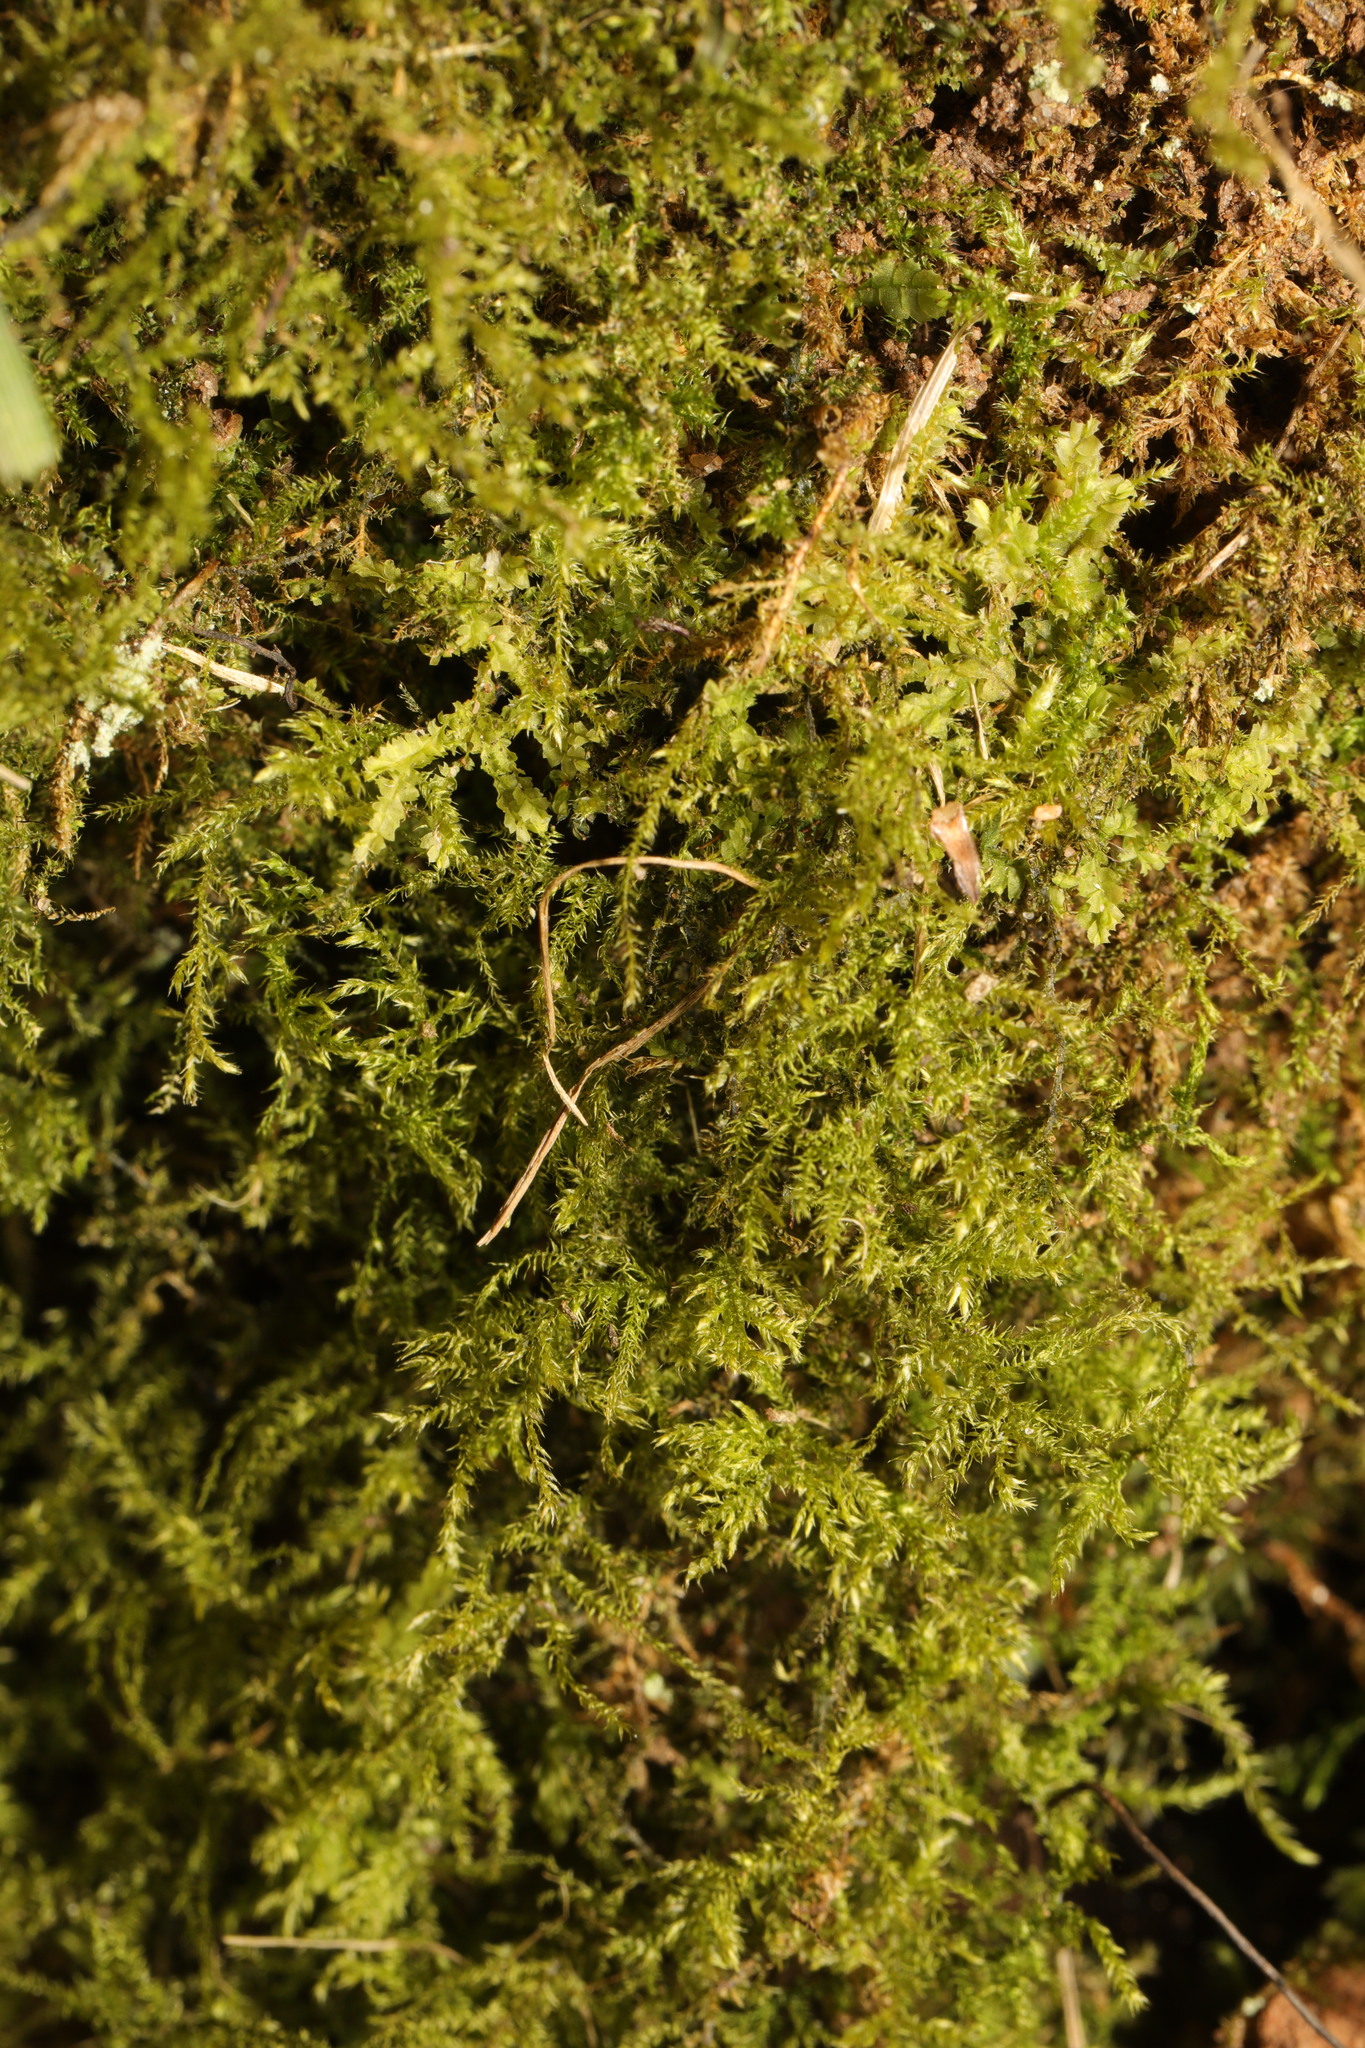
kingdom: Plantae
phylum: Bryophyta
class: Bryopsida
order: Hypnales
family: Brachytheciaceae
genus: Kindbergia
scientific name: Kindbergia praelonga
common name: Slender beaked moss
